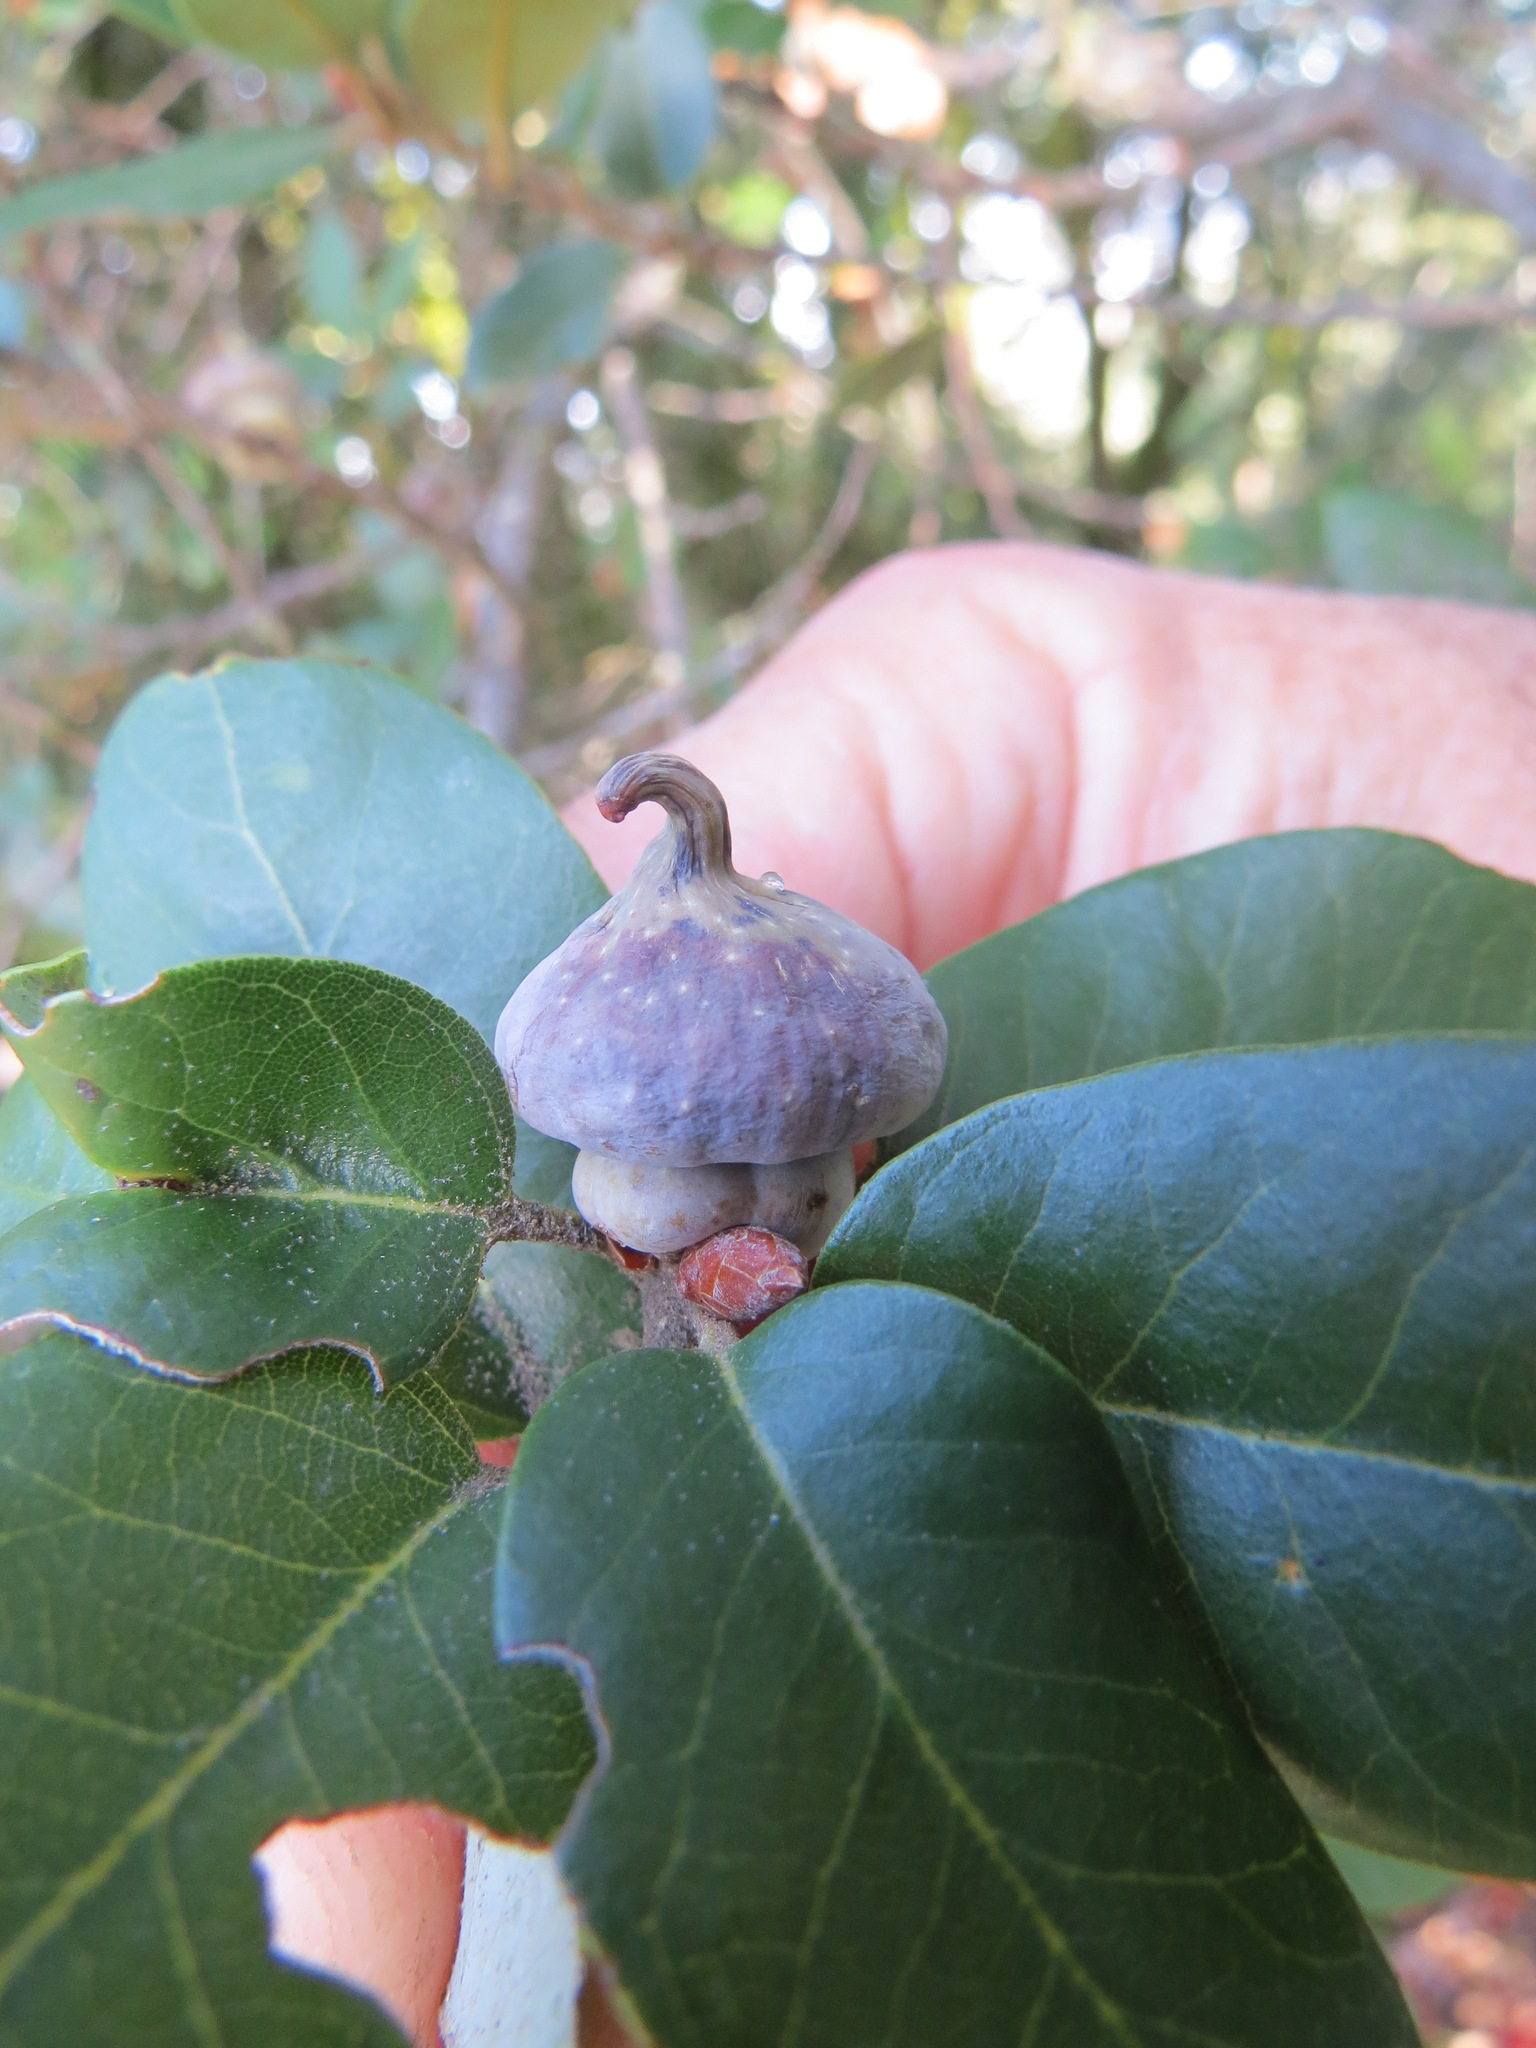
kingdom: Animalia
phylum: Arthropoda
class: Insecta
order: Hymenoptera
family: Cynipidae
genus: Heteroecus
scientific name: Heteroecus
